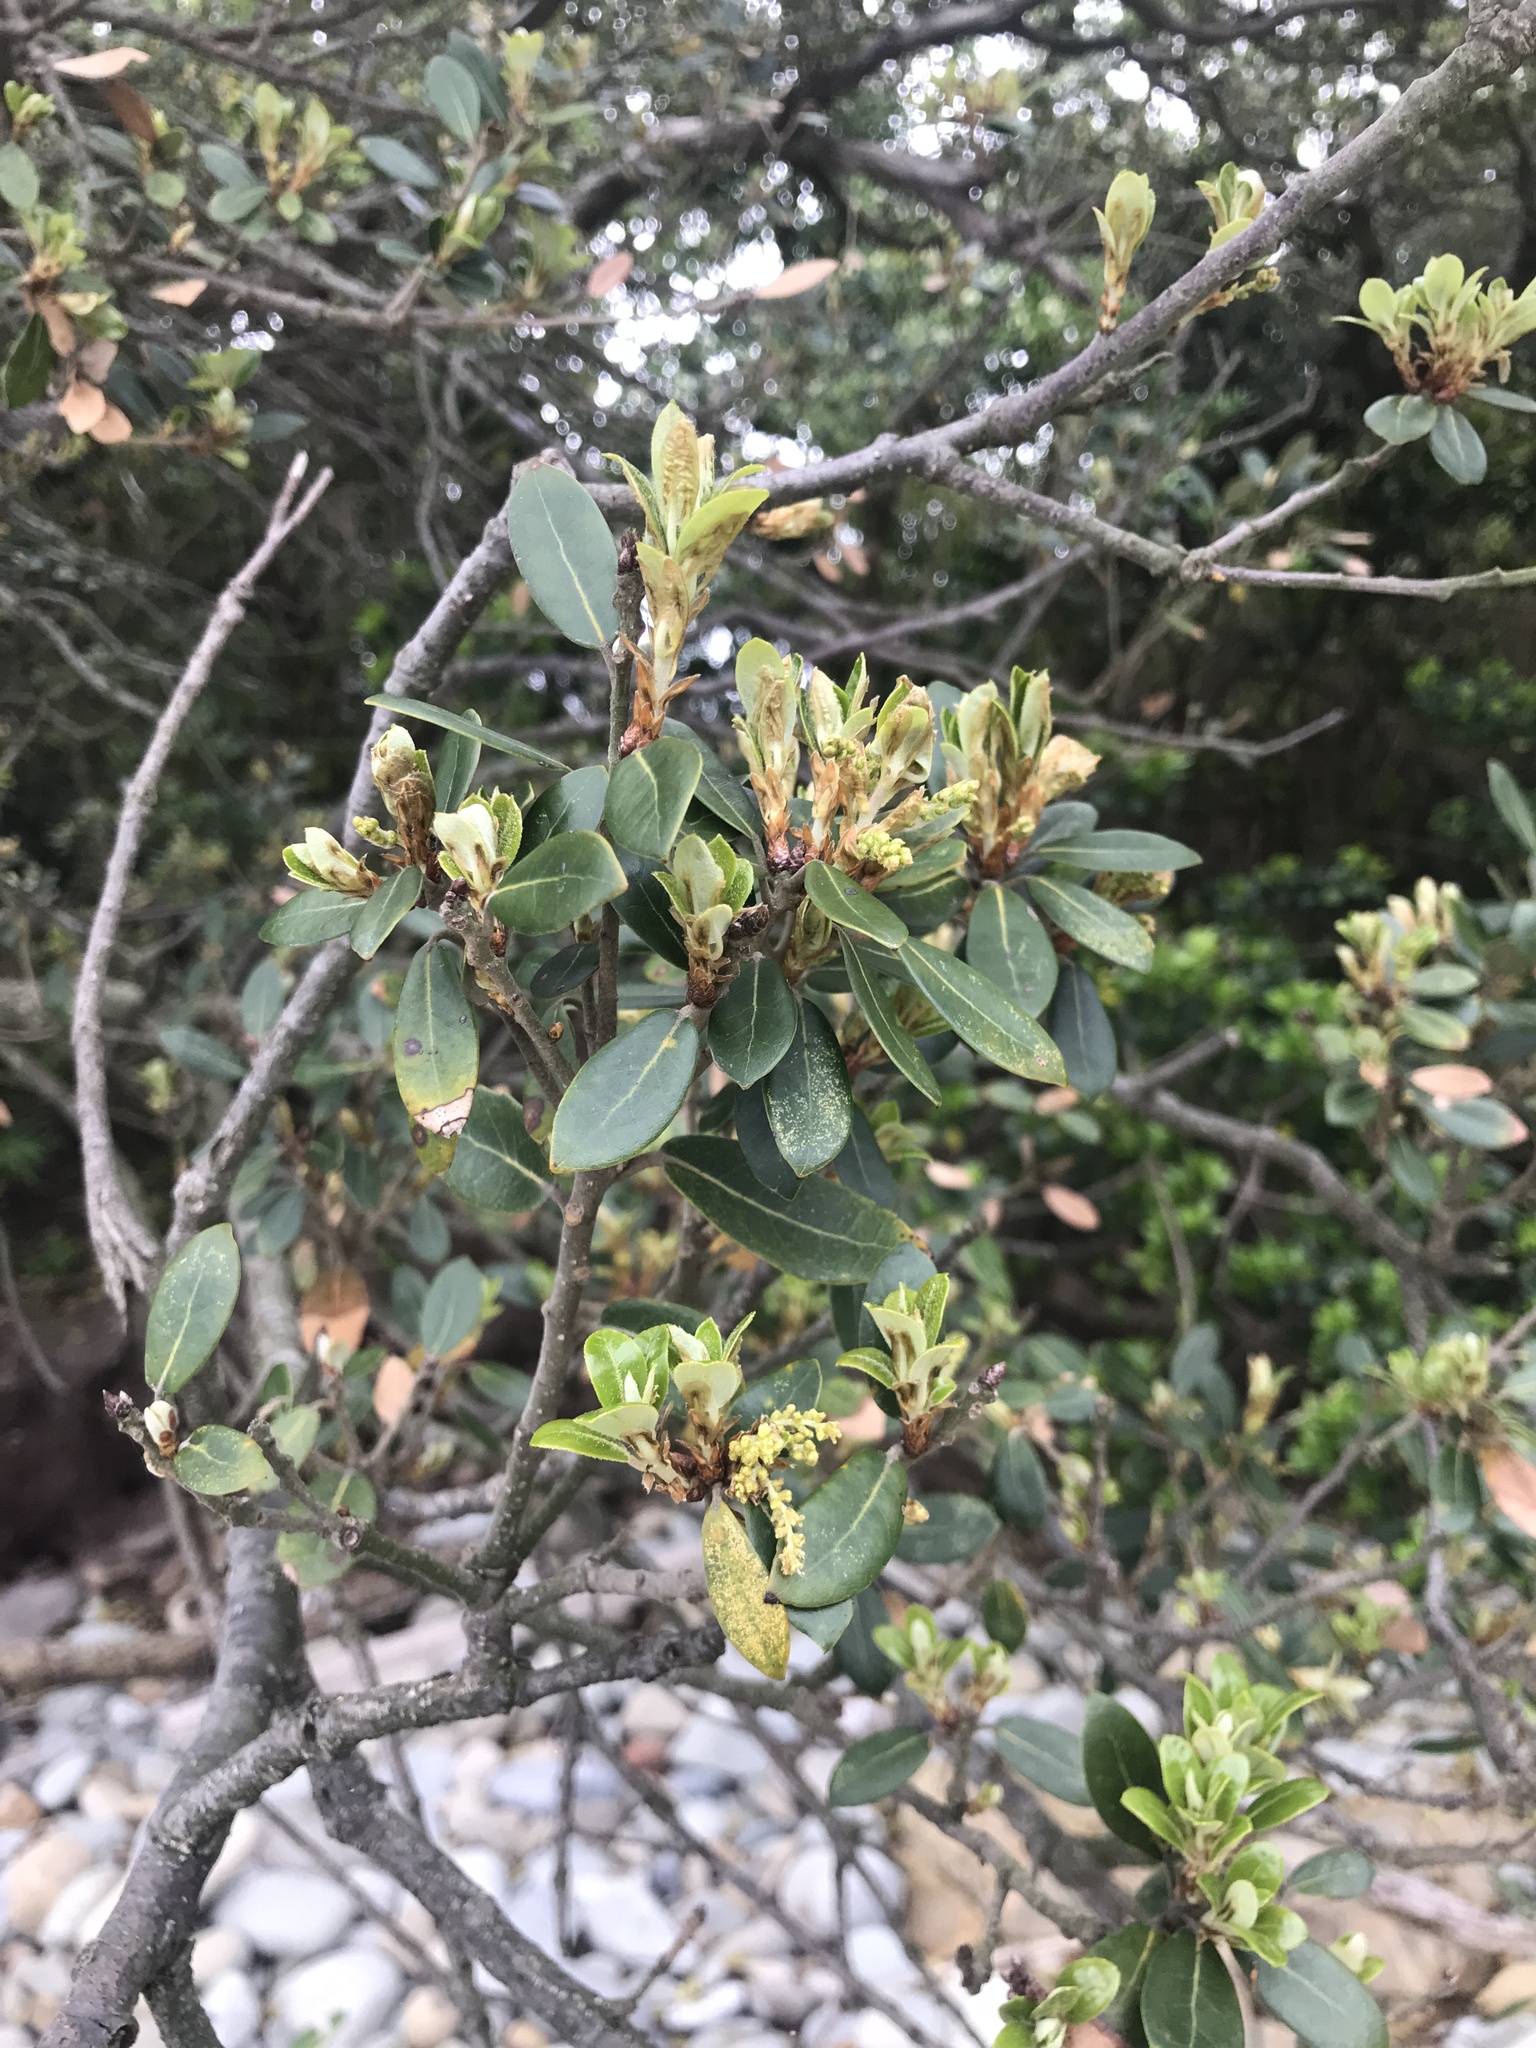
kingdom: Plantae
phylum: Tracheophyta
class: Magnoliopsida
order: Fagales
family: Fagaceae
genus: Quercus
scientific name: Quercus phillyreoides
